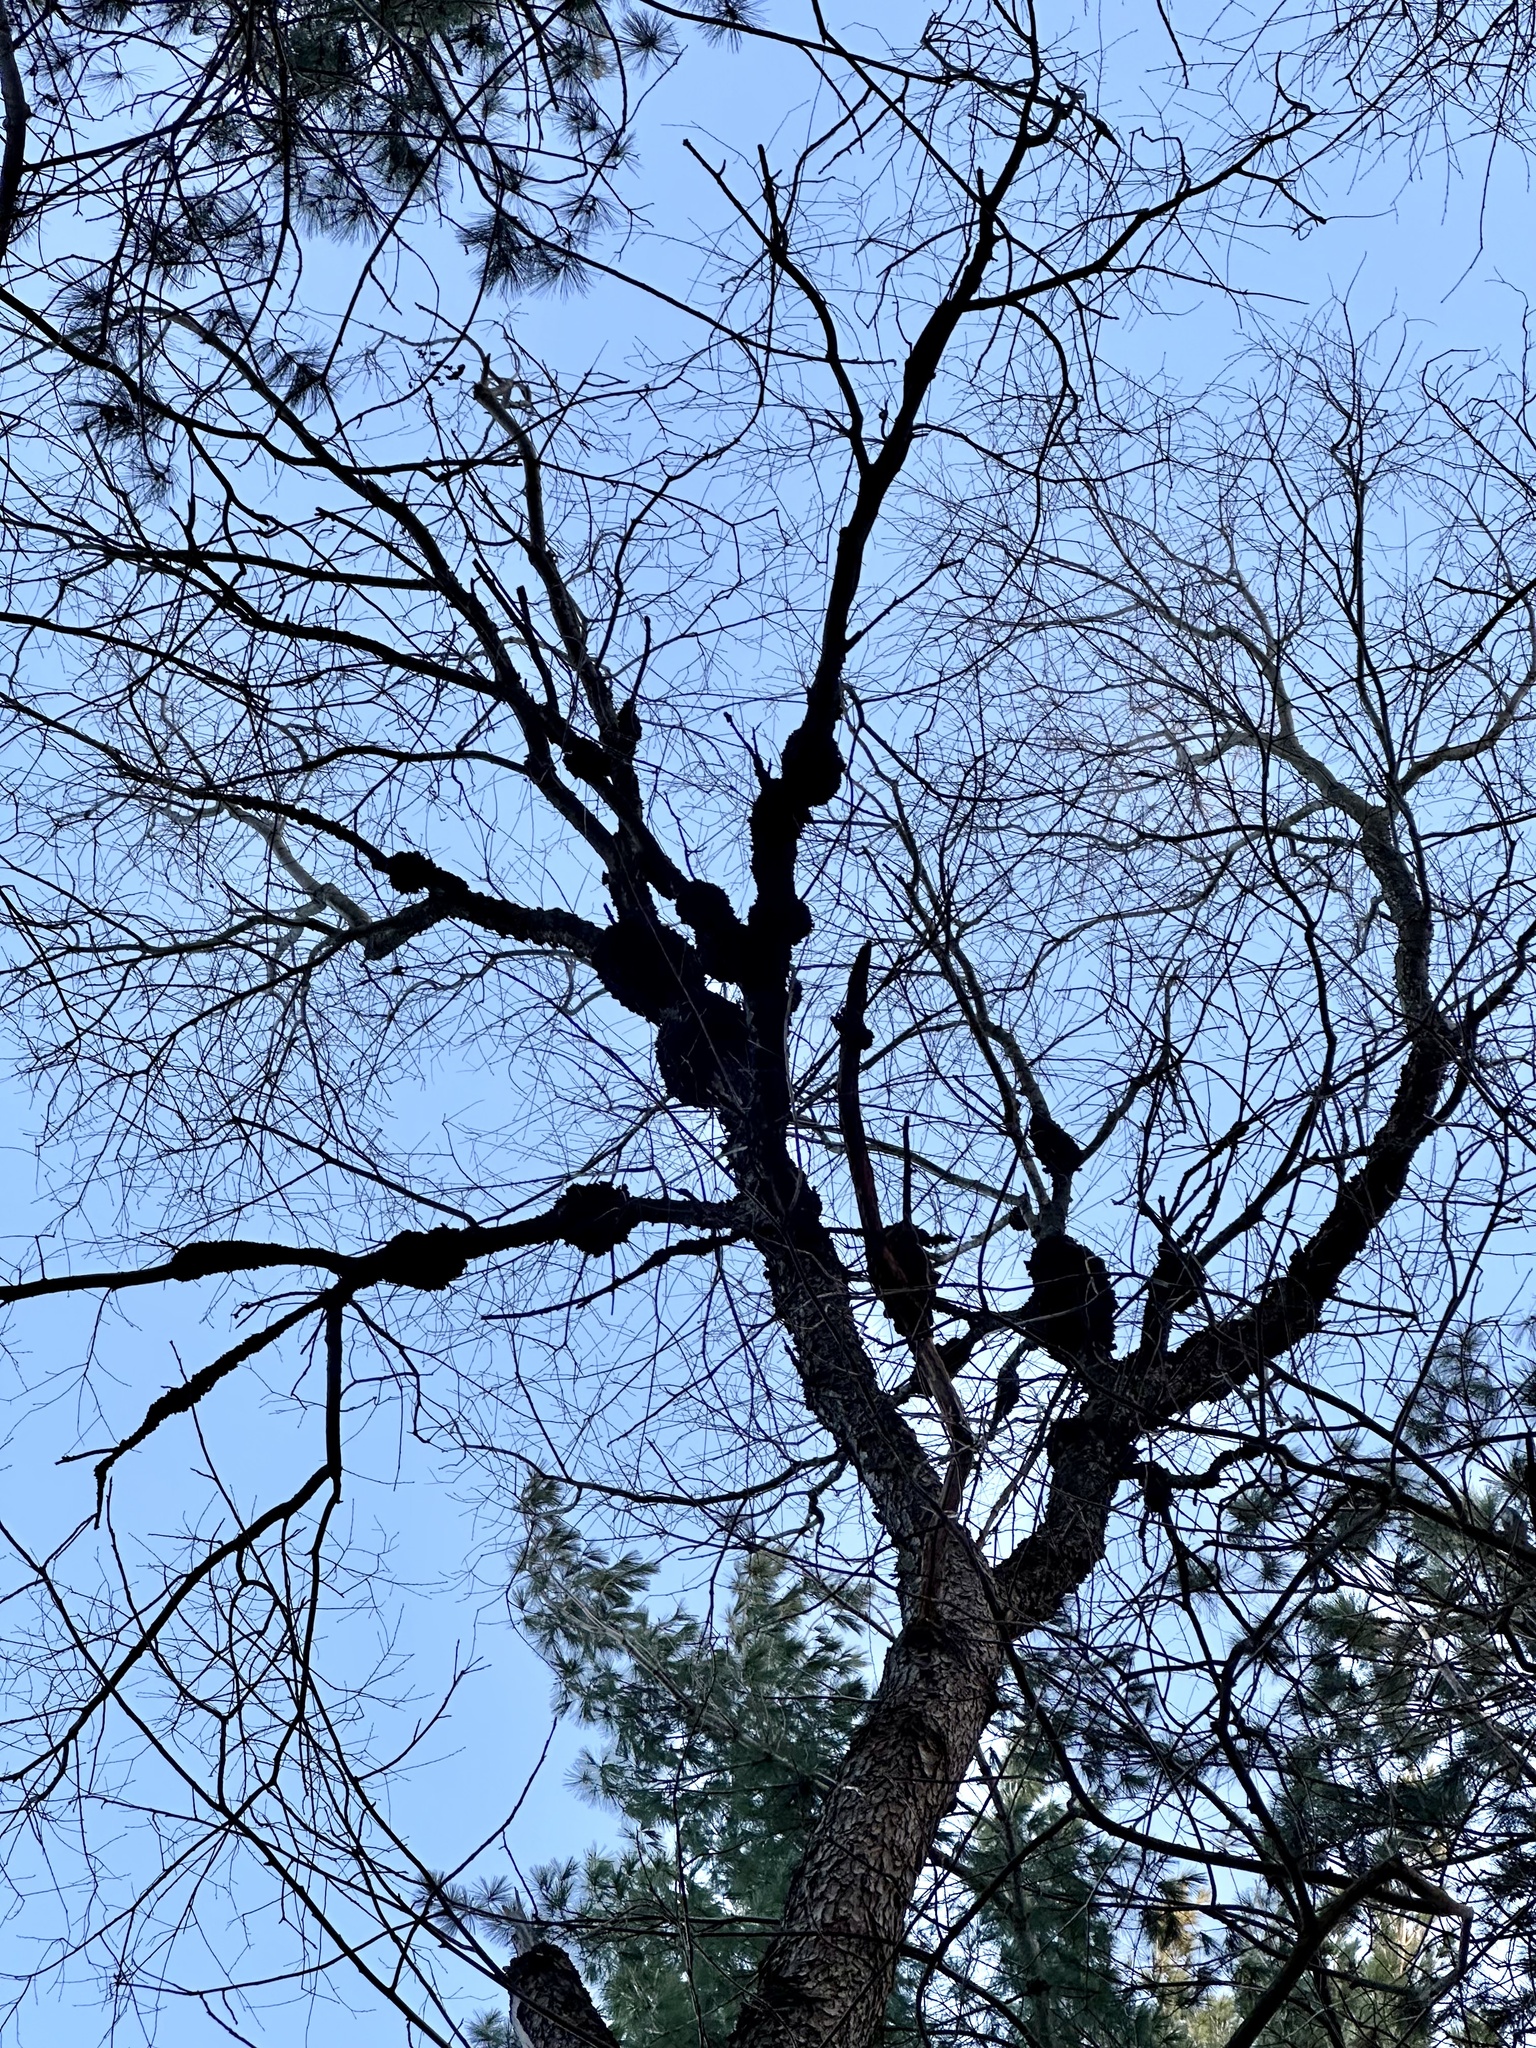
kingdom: Plantae
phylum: Tracheophyta
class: Magnoliopsida
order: Rosales
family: Rosaceae
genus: Prunus
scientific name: Prunus serotina
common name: Black cherry
